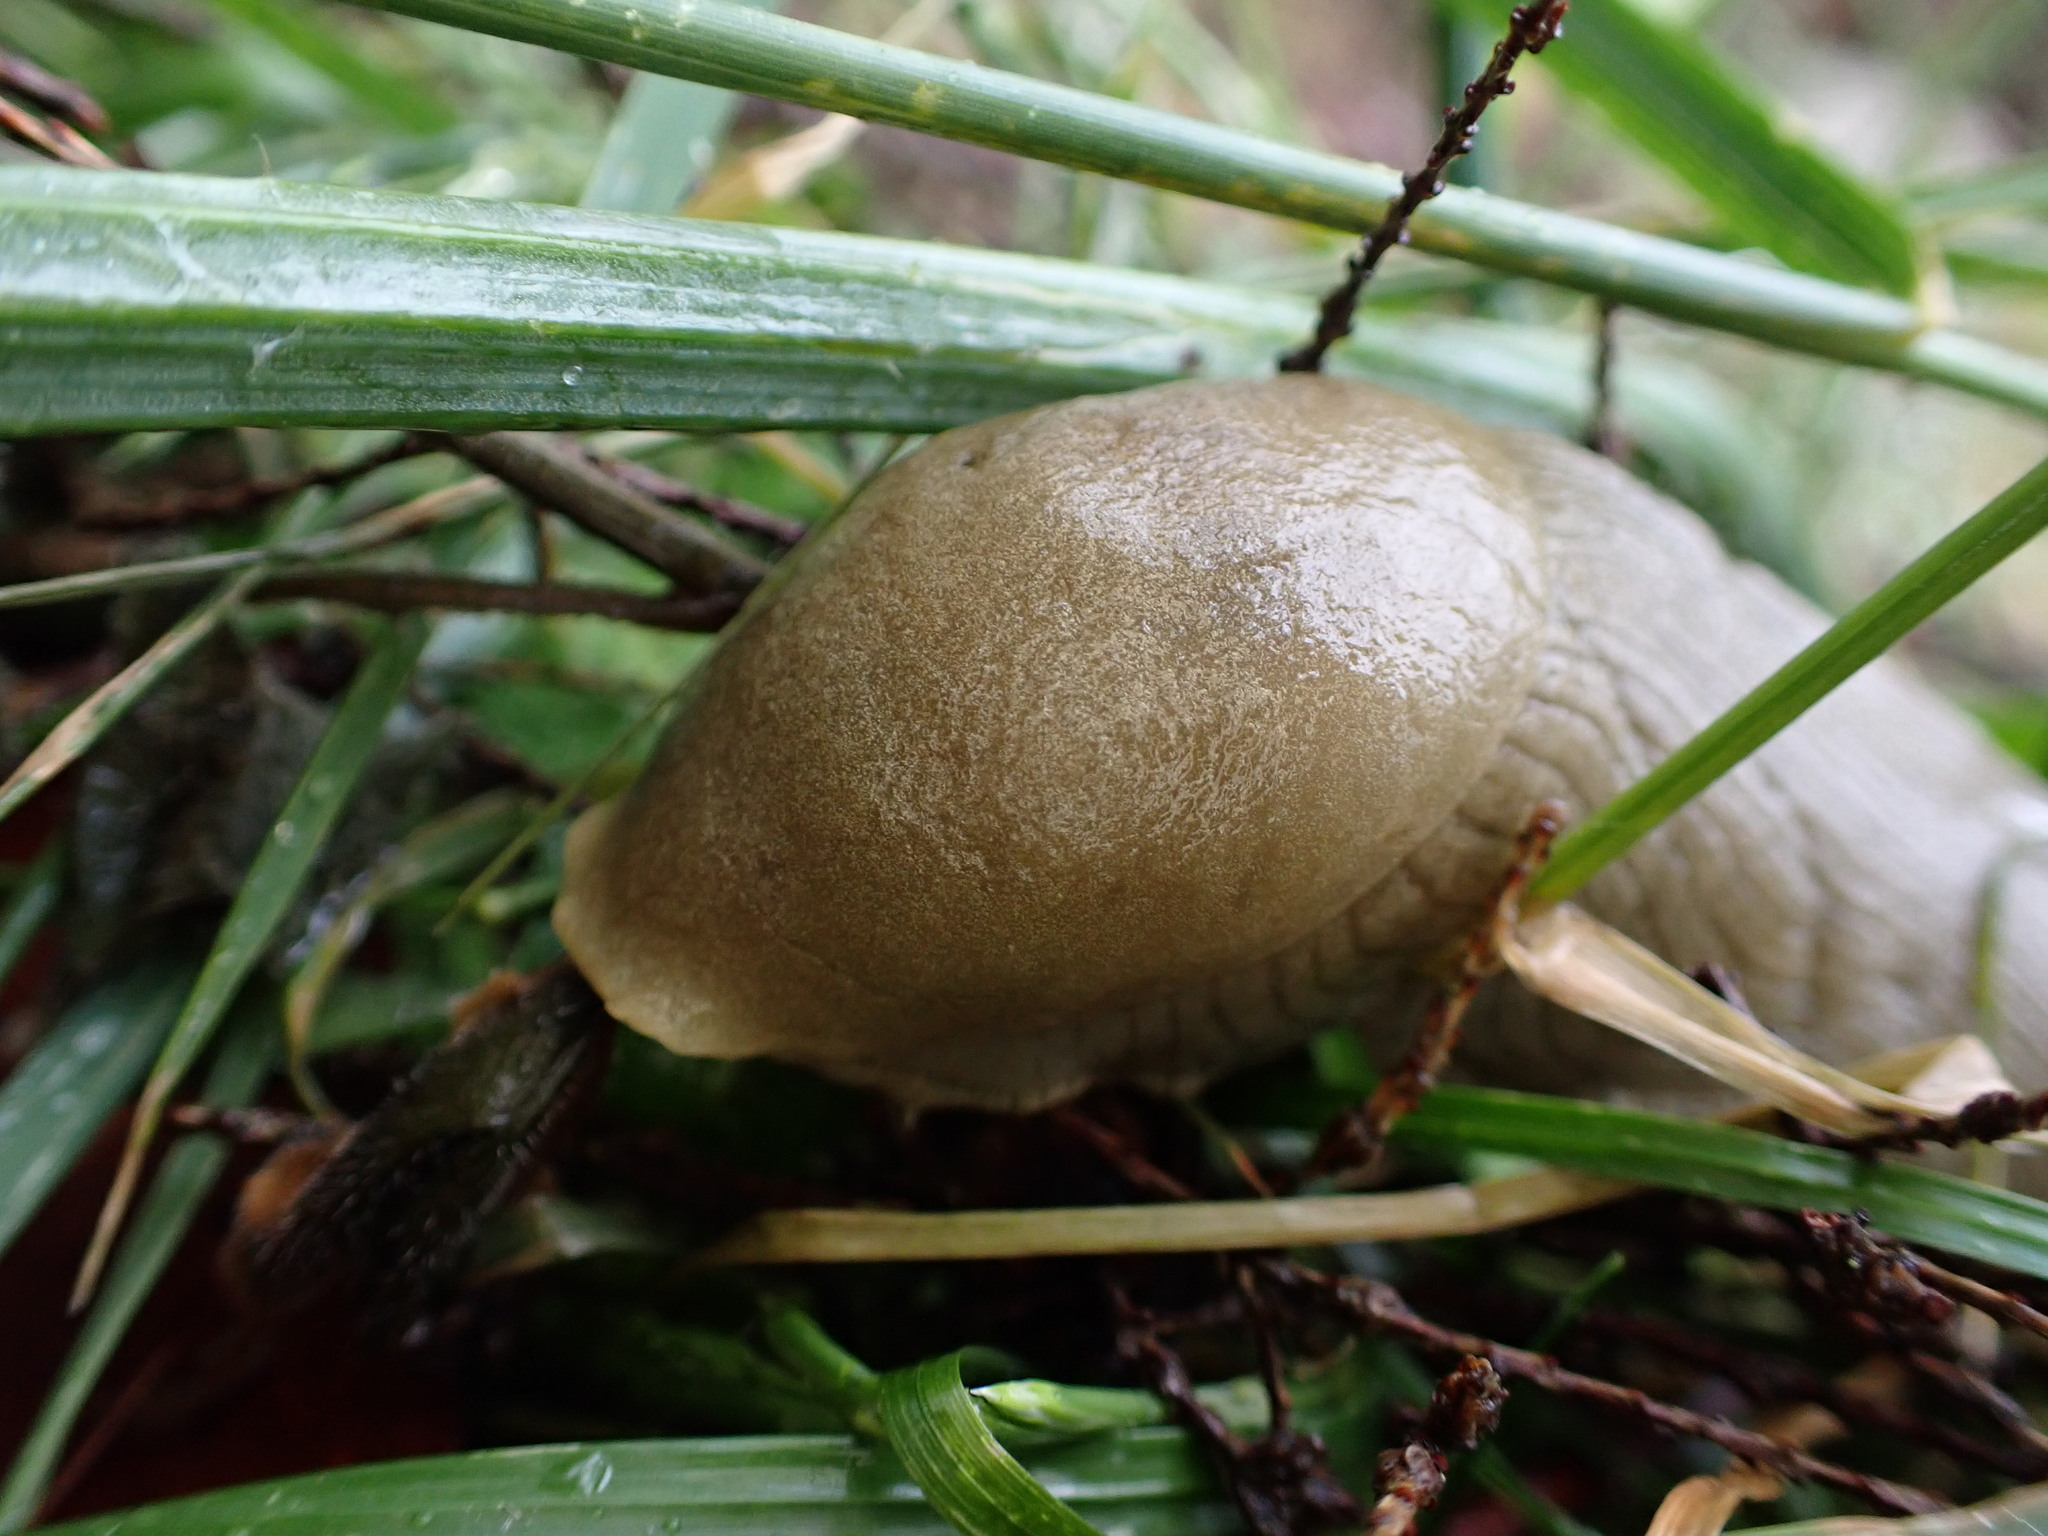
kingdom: Animalia
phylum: Mollusca
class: Gastropoda
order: Stylommatophora
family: Ariolimacidae
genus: Ariolimax
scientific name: Ariolimax columbianus
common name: Pacific banana slug
